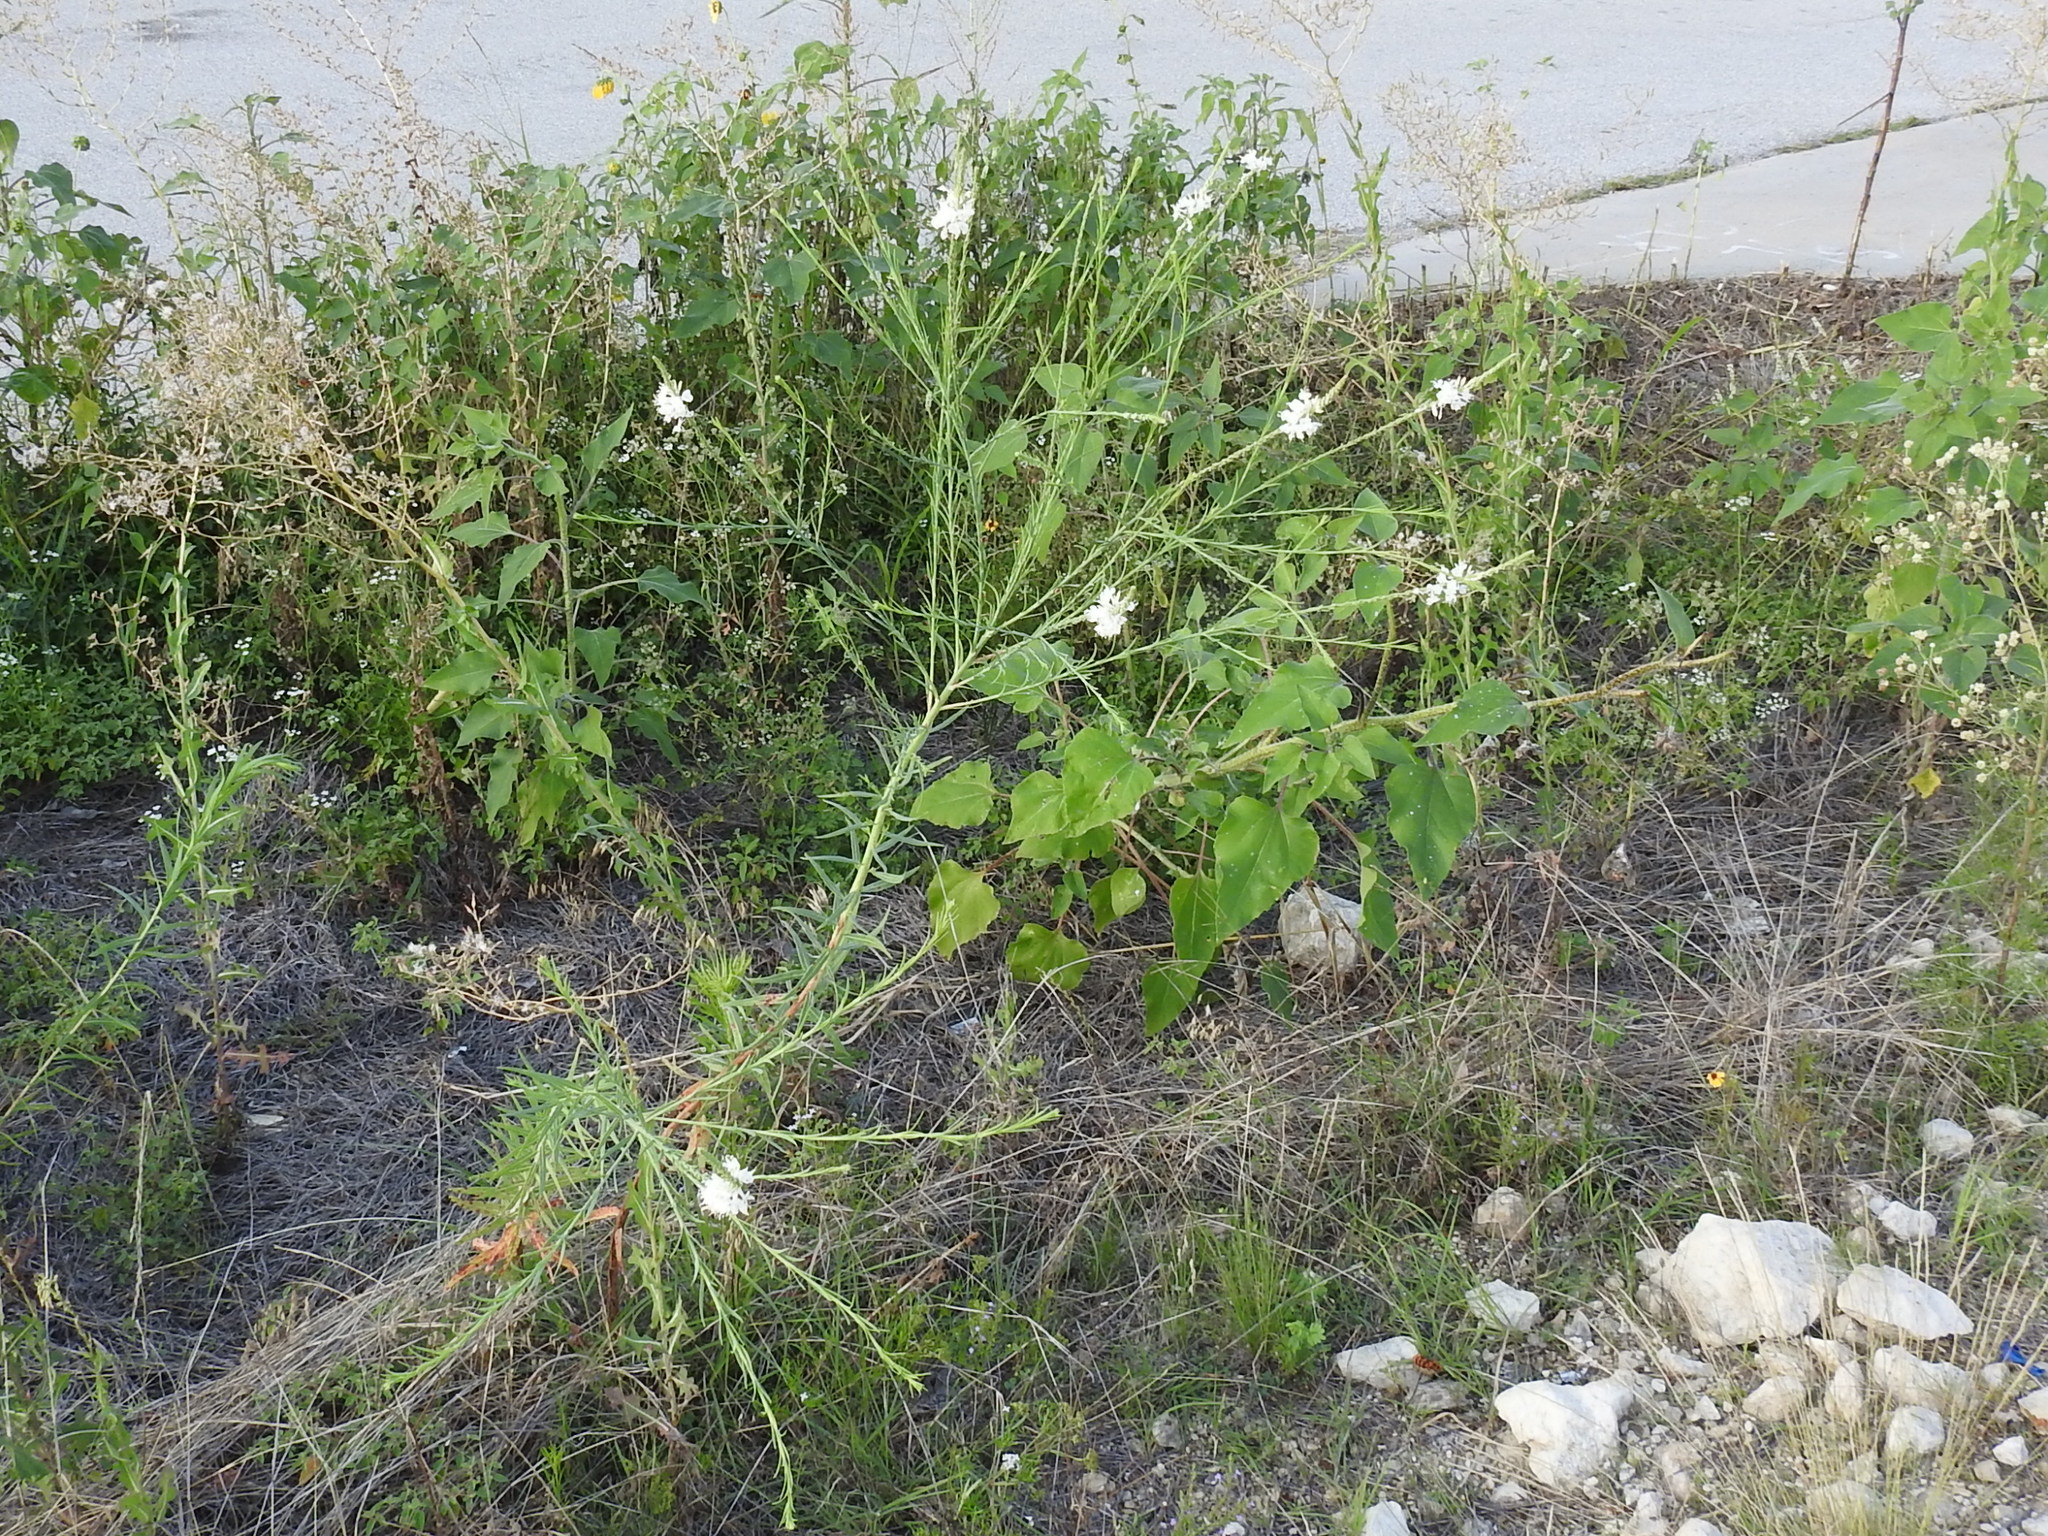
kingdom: Plantae
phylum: Tracheophyta
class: Magnoliopsida
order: Myrtales
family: Onagraceae
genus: Oenothera
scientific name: Oenothera glaucifolia
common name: False gaura
